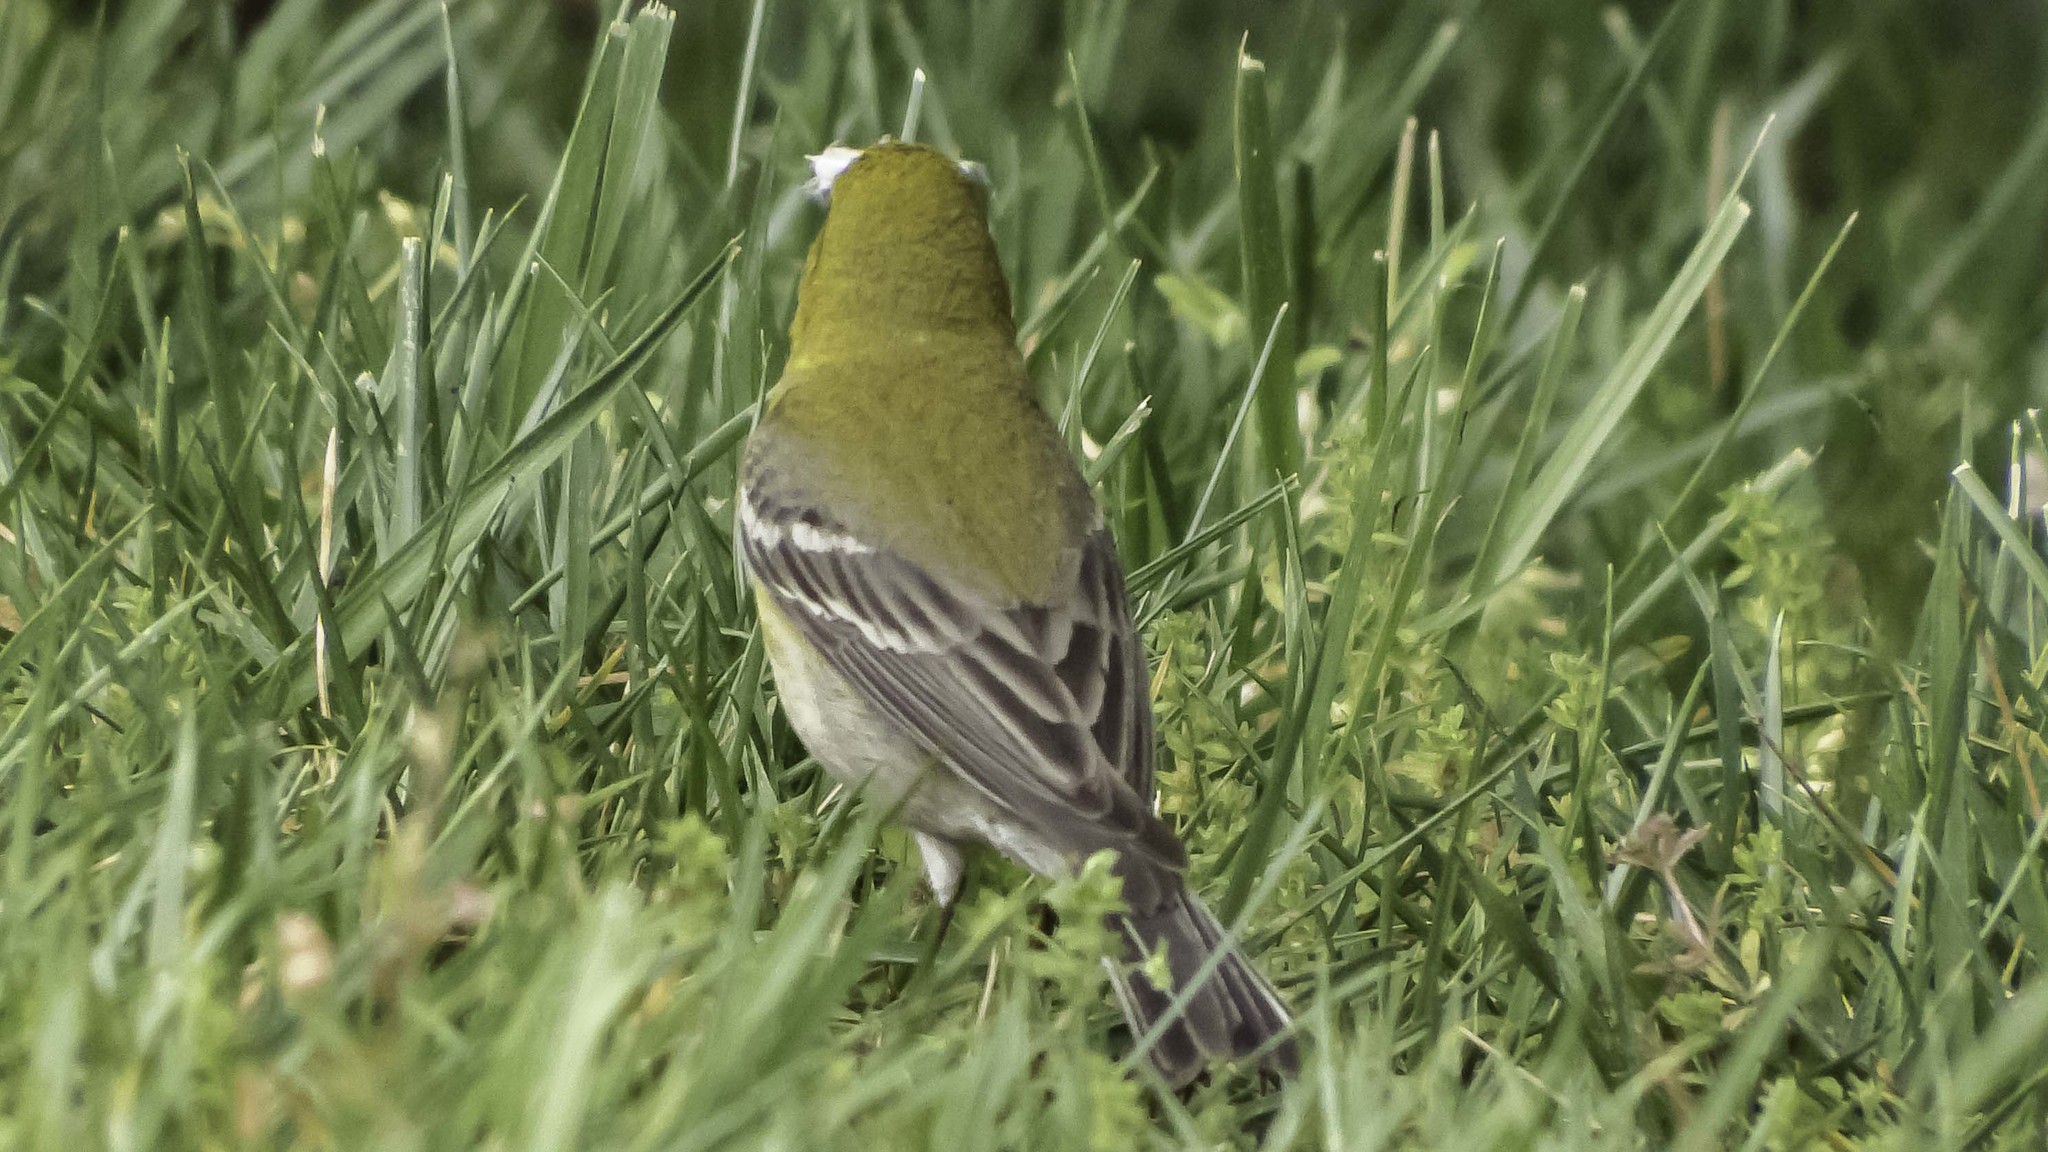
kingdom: Animalia
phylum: Chordata
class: Aves
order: Passeriformes
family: Parulidae
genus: Setophaga
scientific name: Setophaga pinus
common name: Pine warbler
